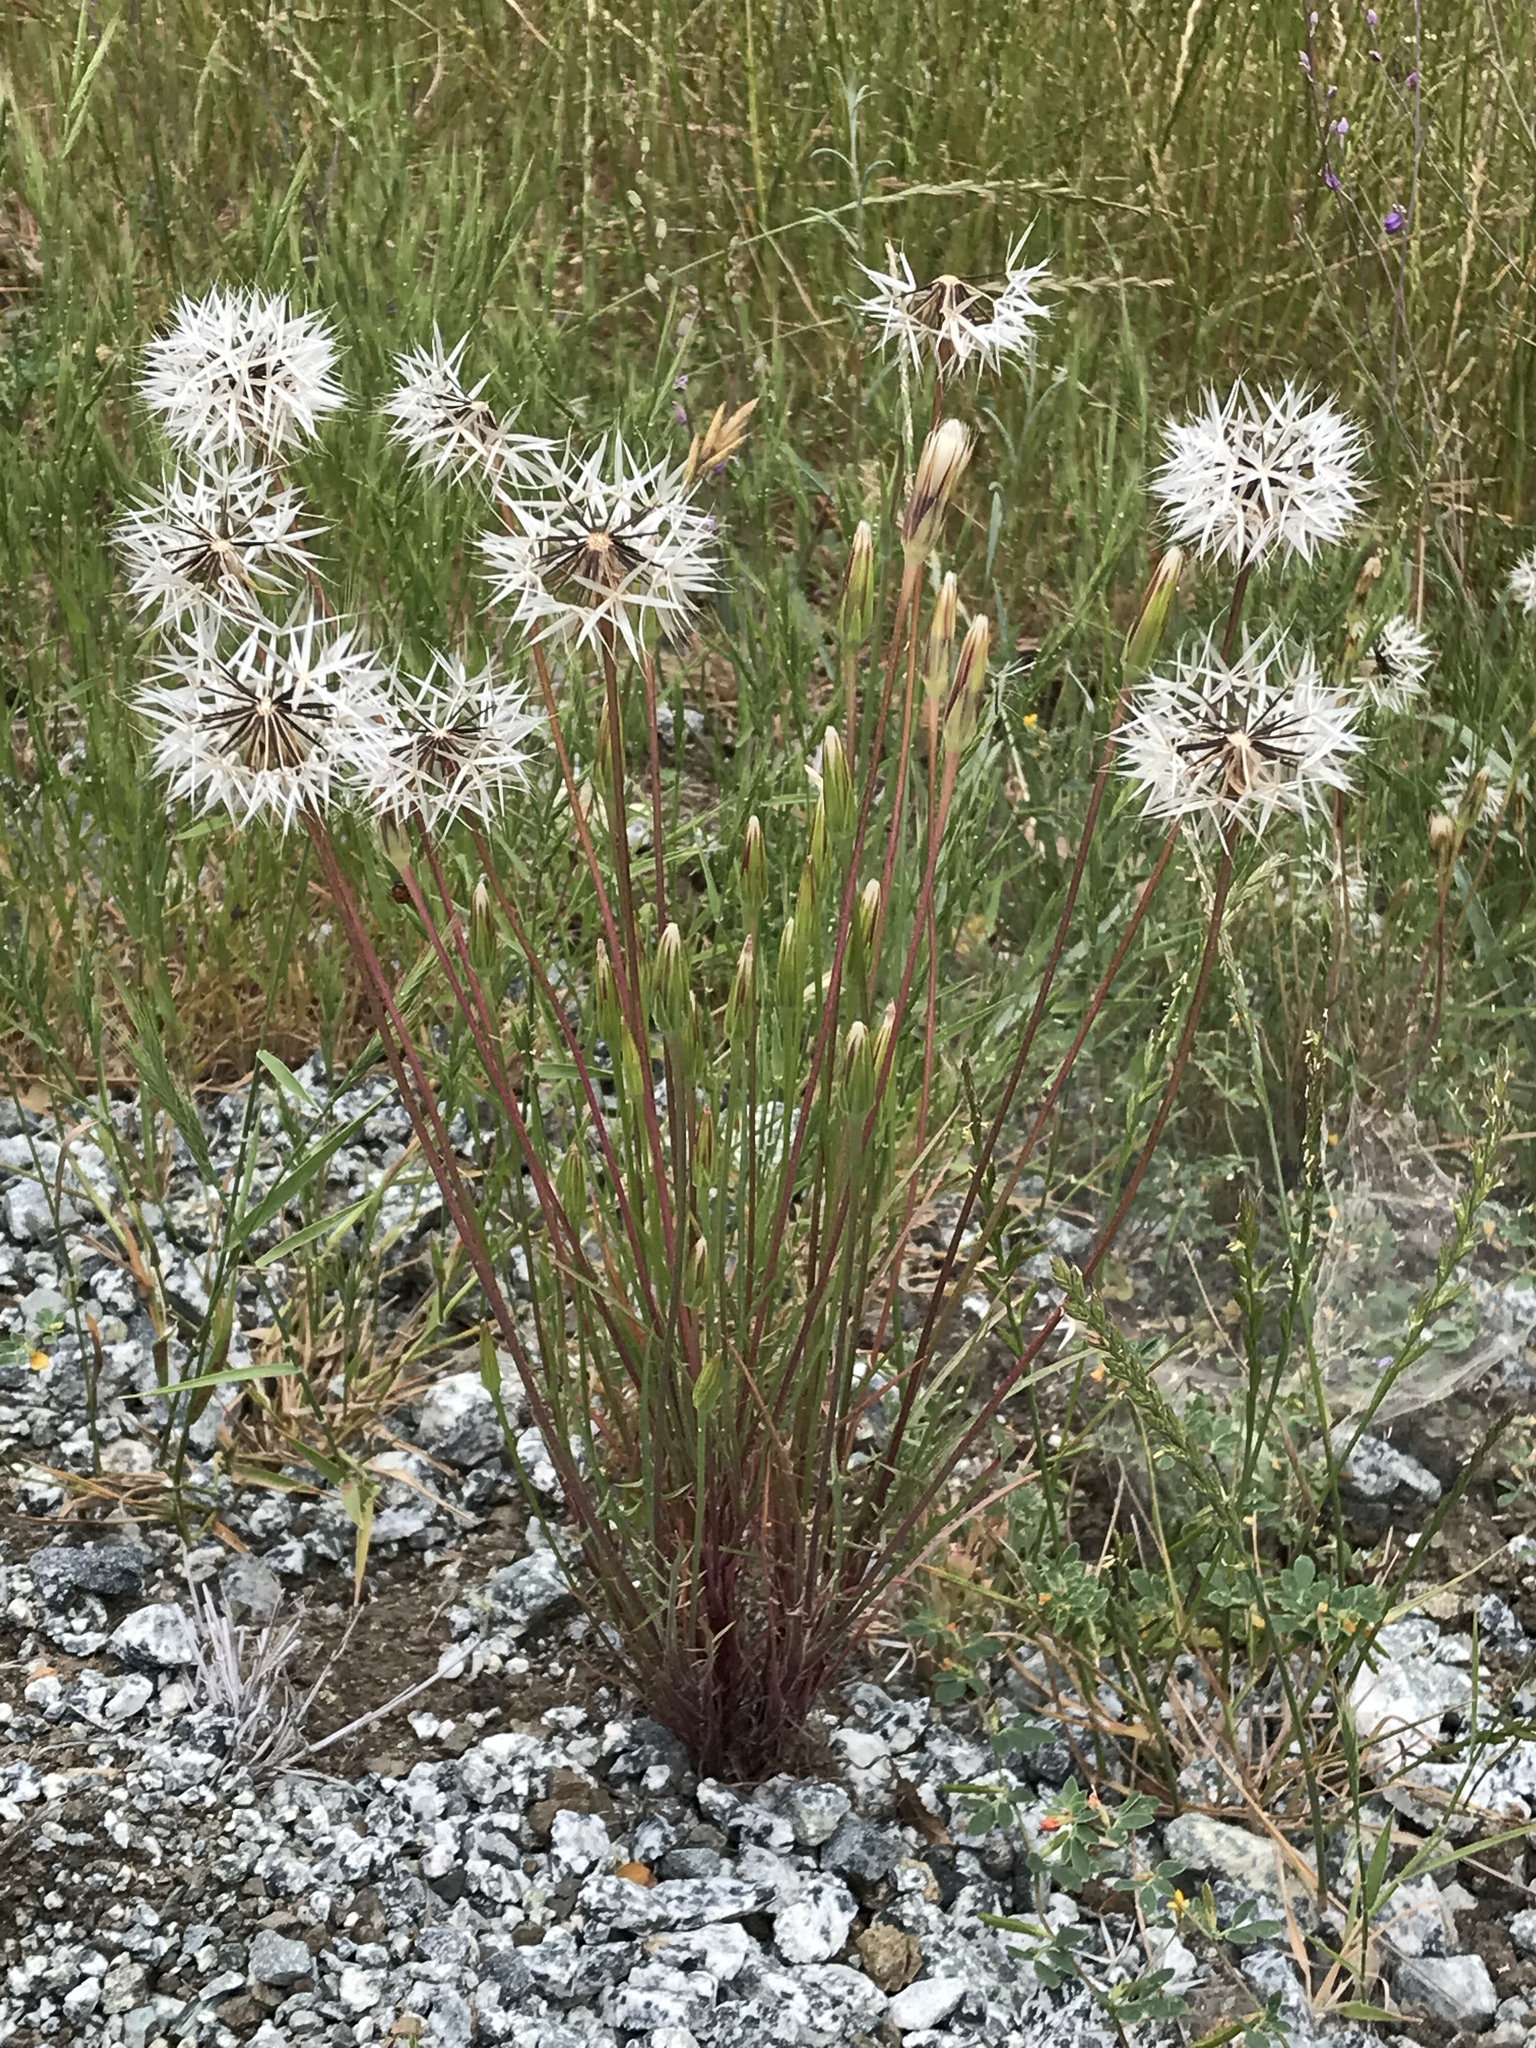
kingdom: Plantae
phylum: Tracheophyta
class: Magnoliopsida
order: Asterales
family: Asteraceae
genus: Microseris
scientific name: Microseris lindleyi
